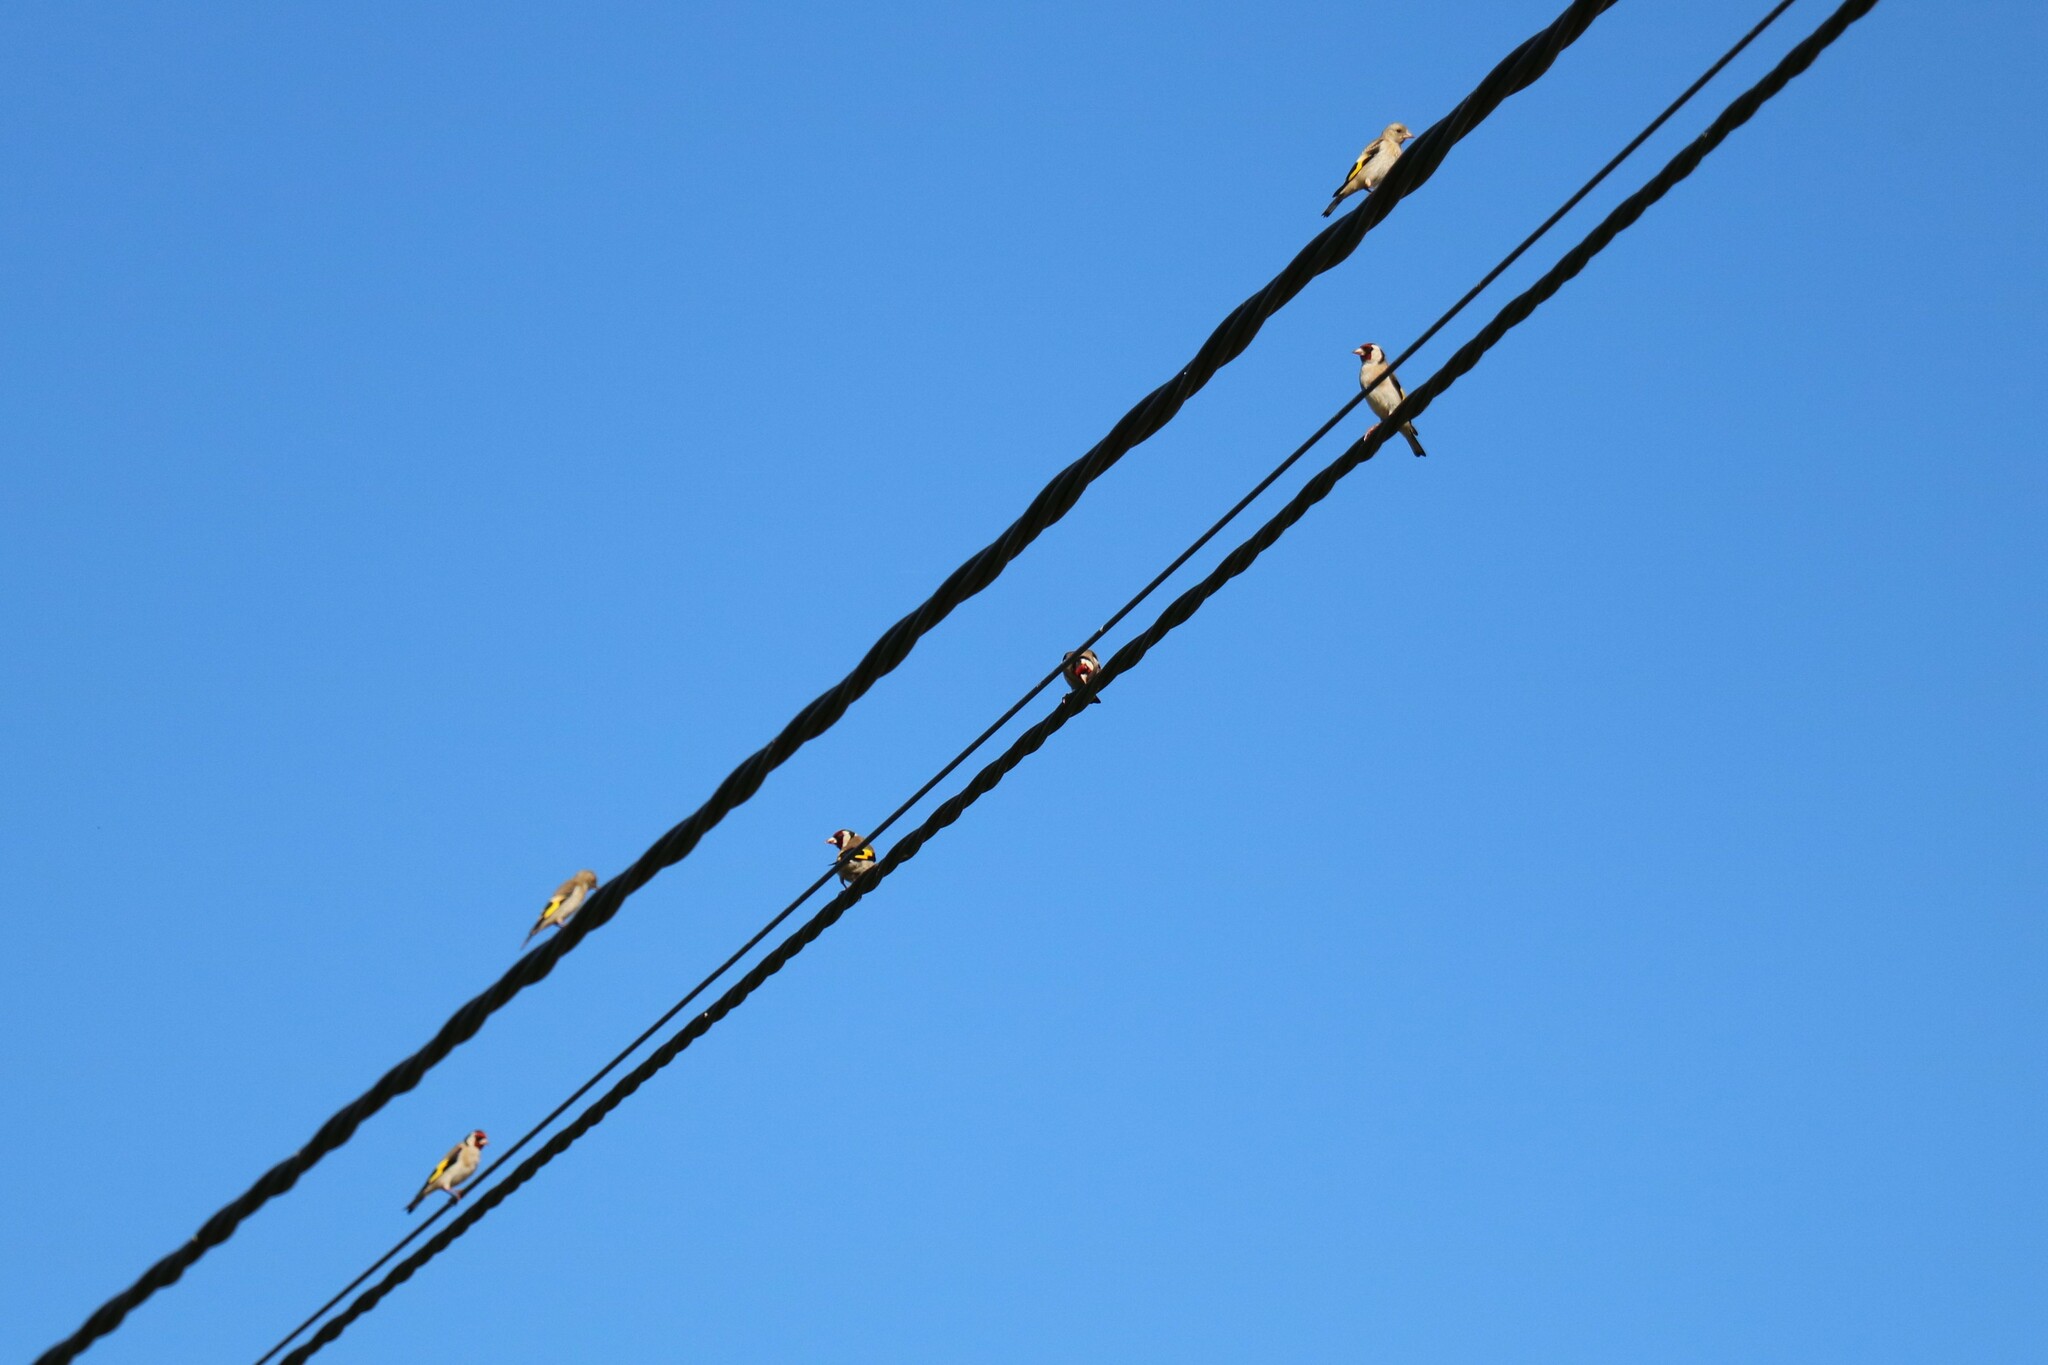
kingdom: Animalia
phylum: Chordata
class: Aves
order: Passeriformes
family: Fringillidae
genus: Carduelis
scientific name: Carduelis carduelis
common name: European goldfinch
